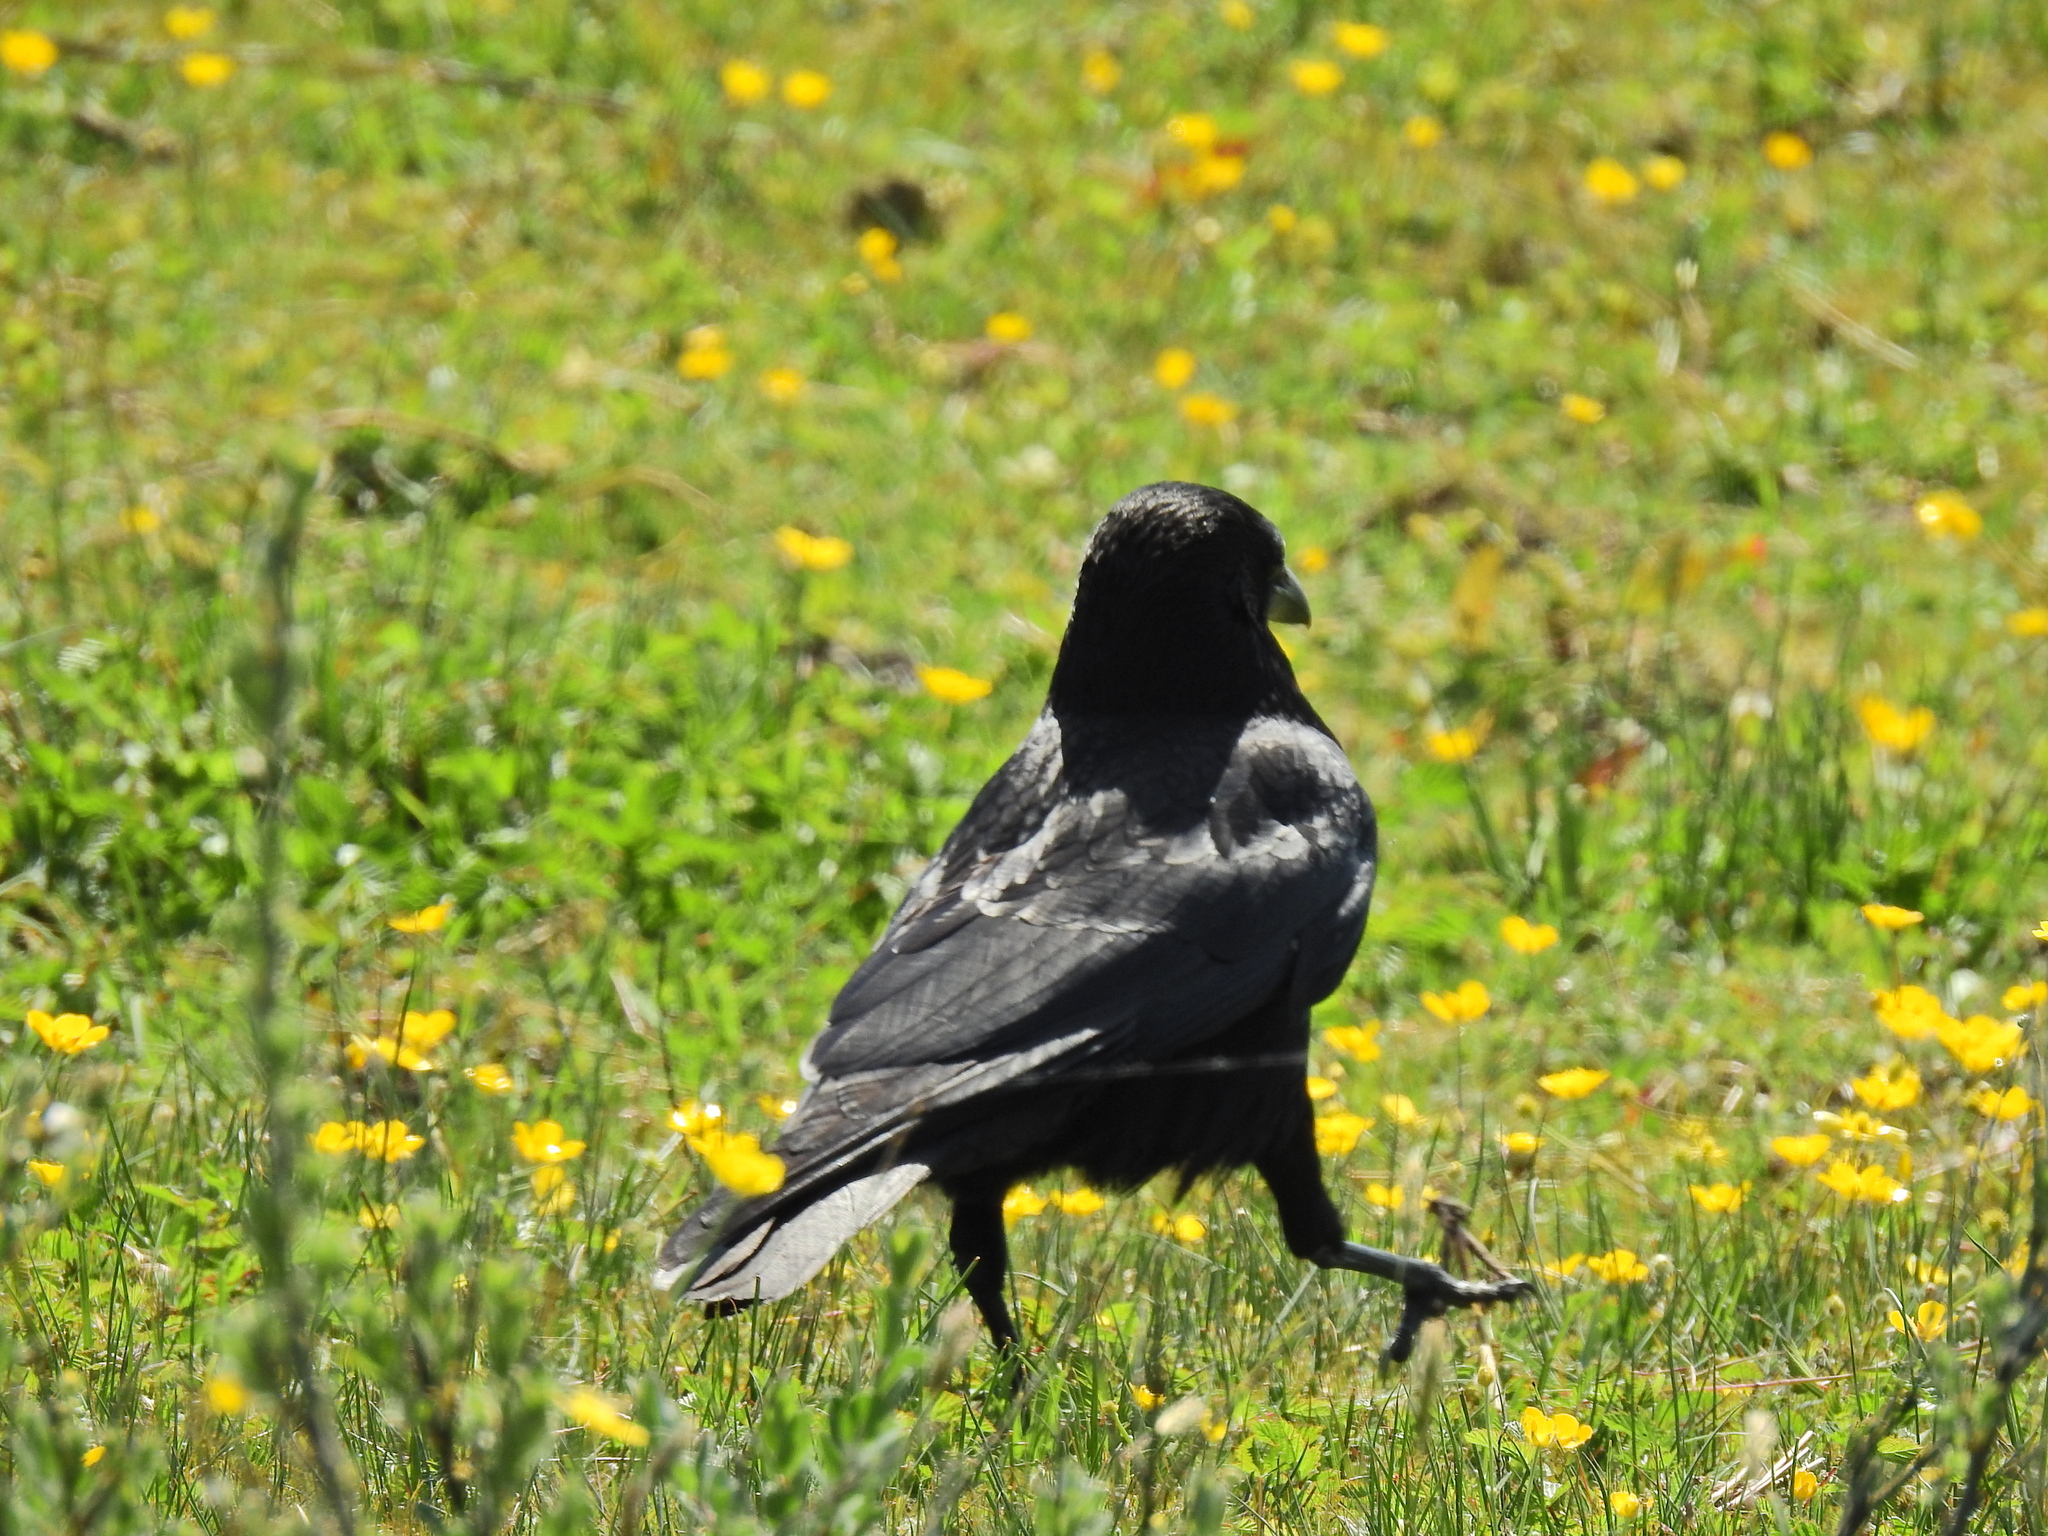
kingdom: Animalia
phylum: Chordata
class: Aves
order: Passeriformes
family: Corvidae
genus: Corvus
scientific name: Corvus corone
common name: Carrion crow
